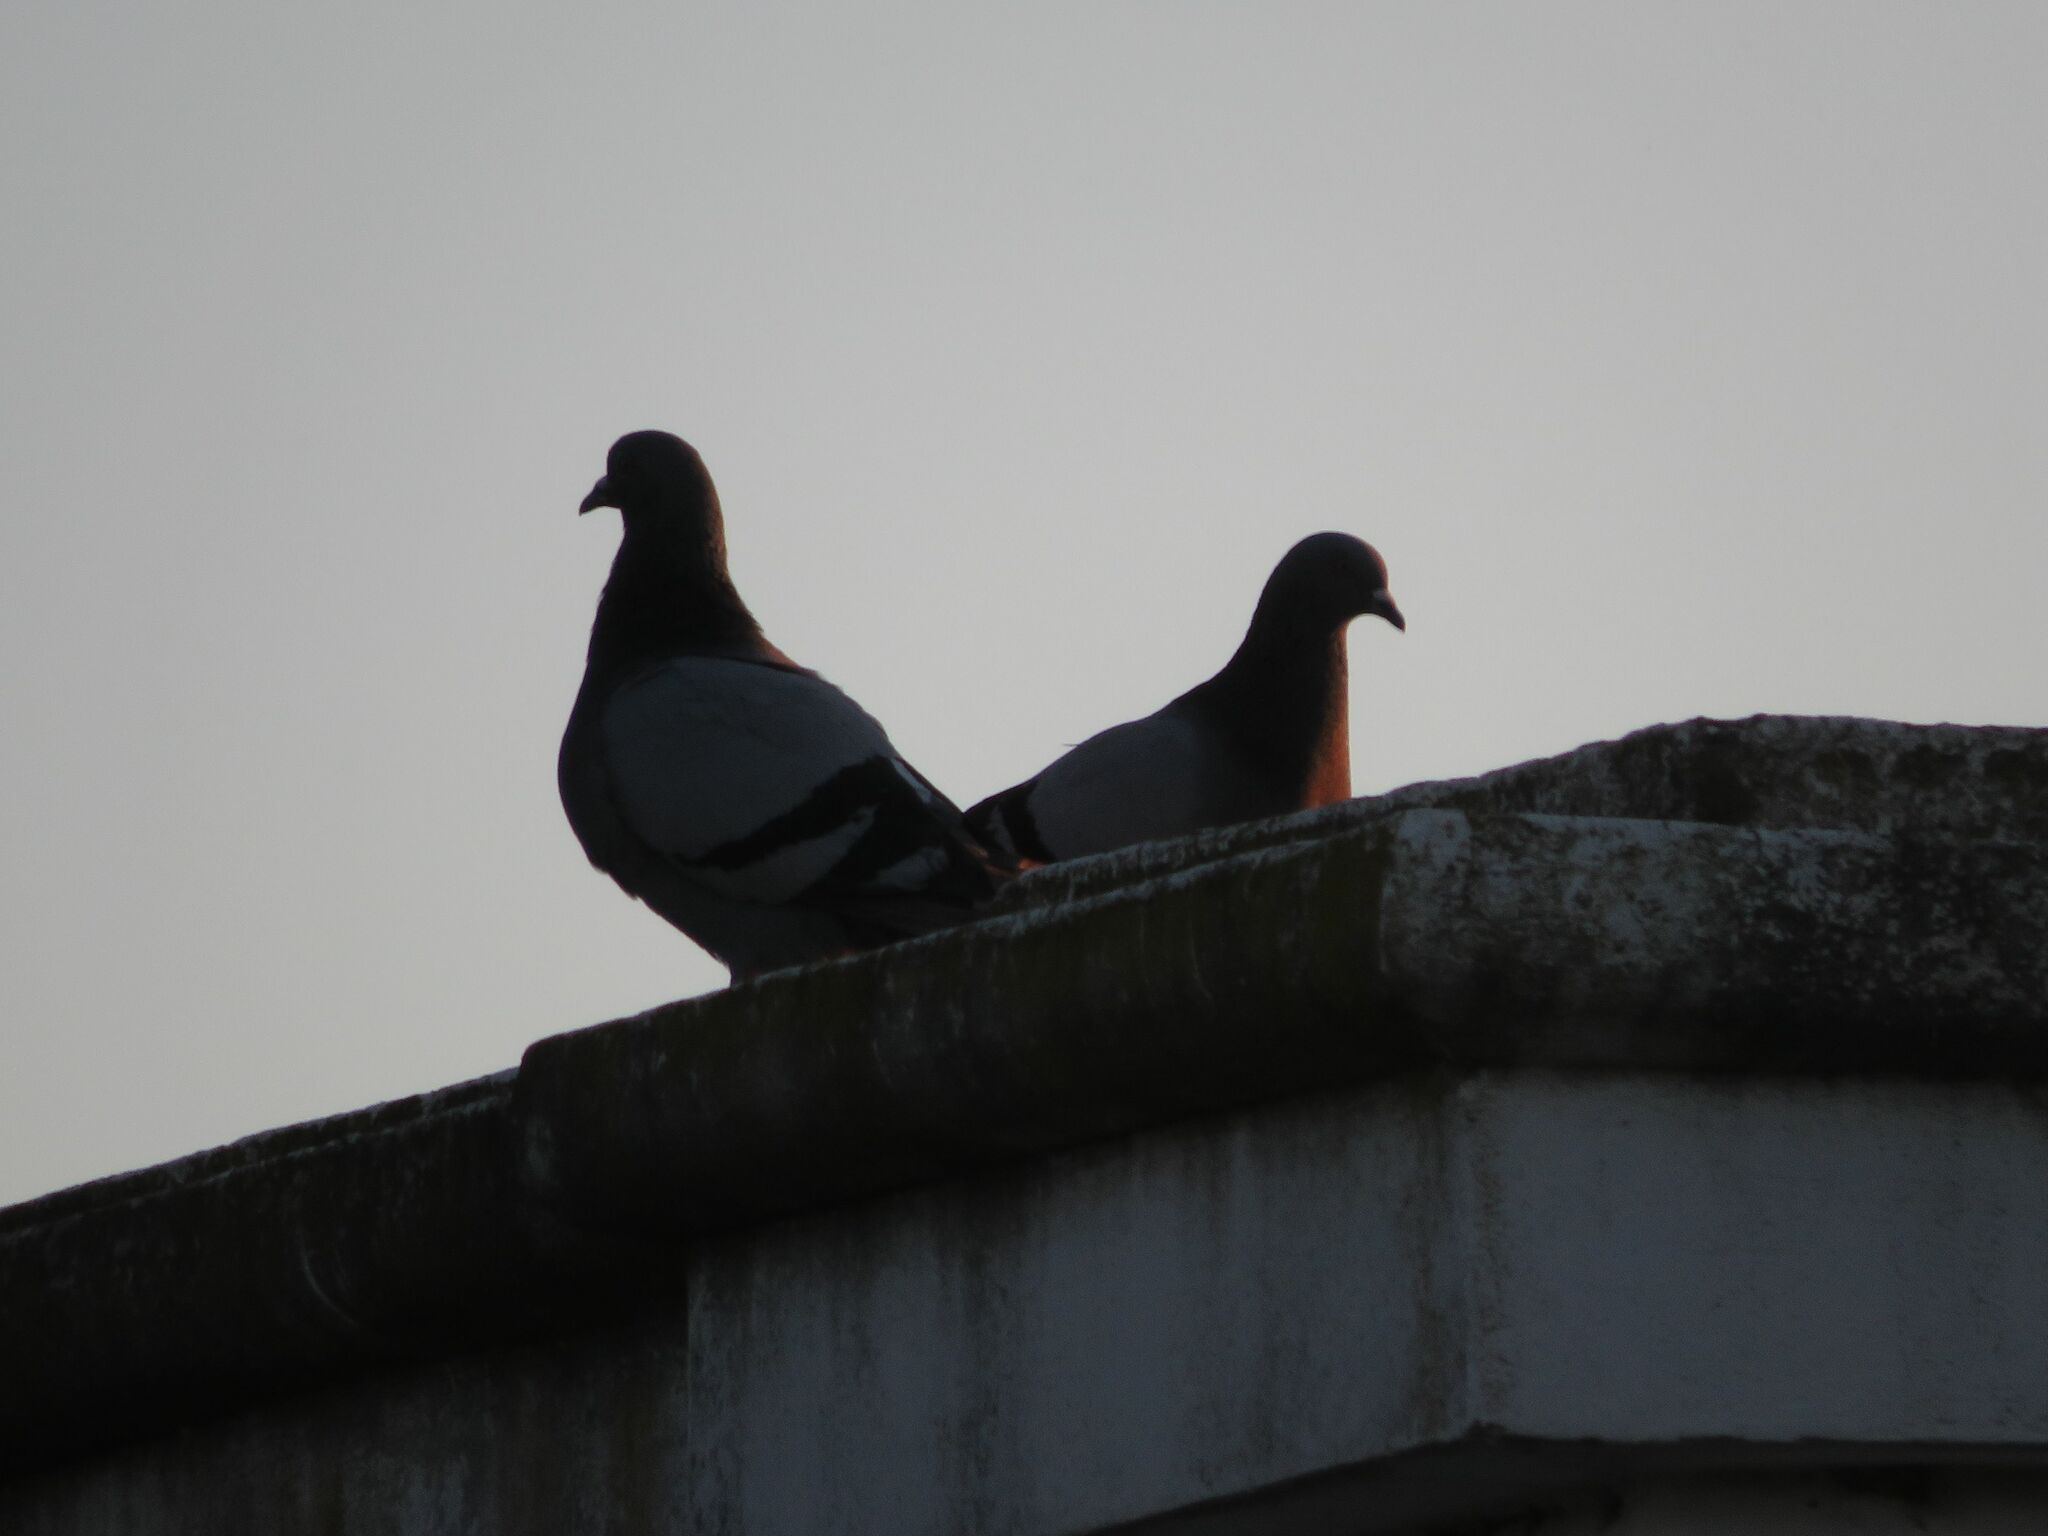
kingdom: Animalia
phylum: Chordata
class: Aves
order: Columbiformes
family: Columbidae
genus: Columba
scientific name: Columba livia
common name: Rock pigeon
